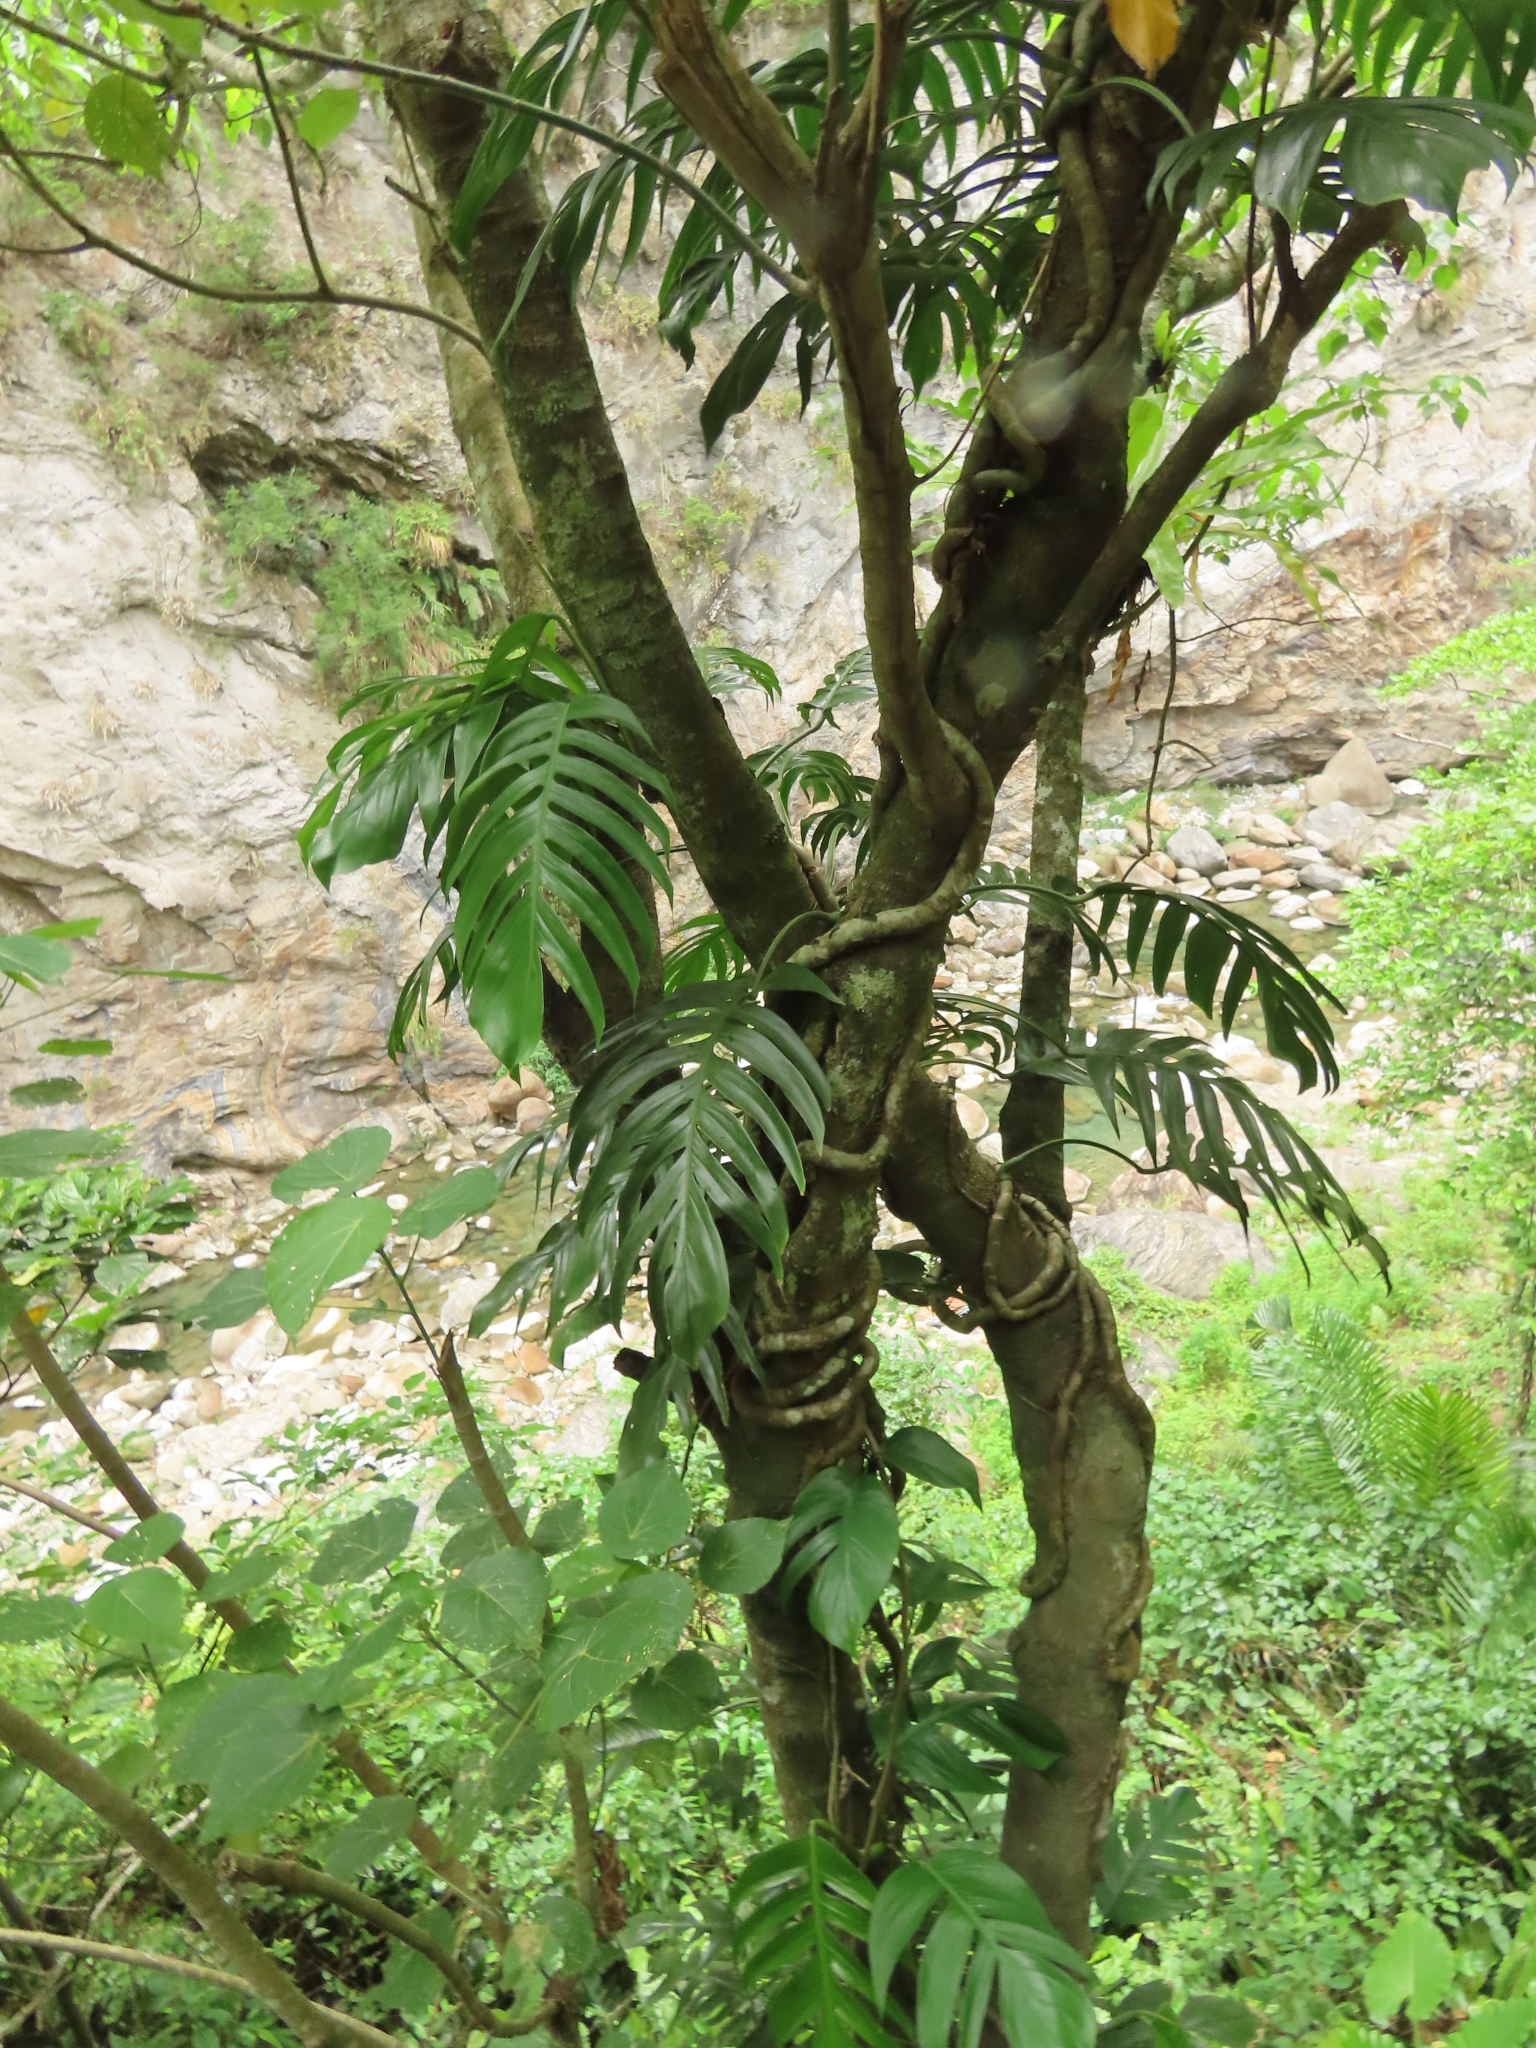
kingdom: Plantae
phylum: Tracheophyta
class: Liliopsida
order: Alismatales
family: Araceae
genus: Epipremnum
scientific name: Epipremnum pinnatum
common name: Centipede tongavine
